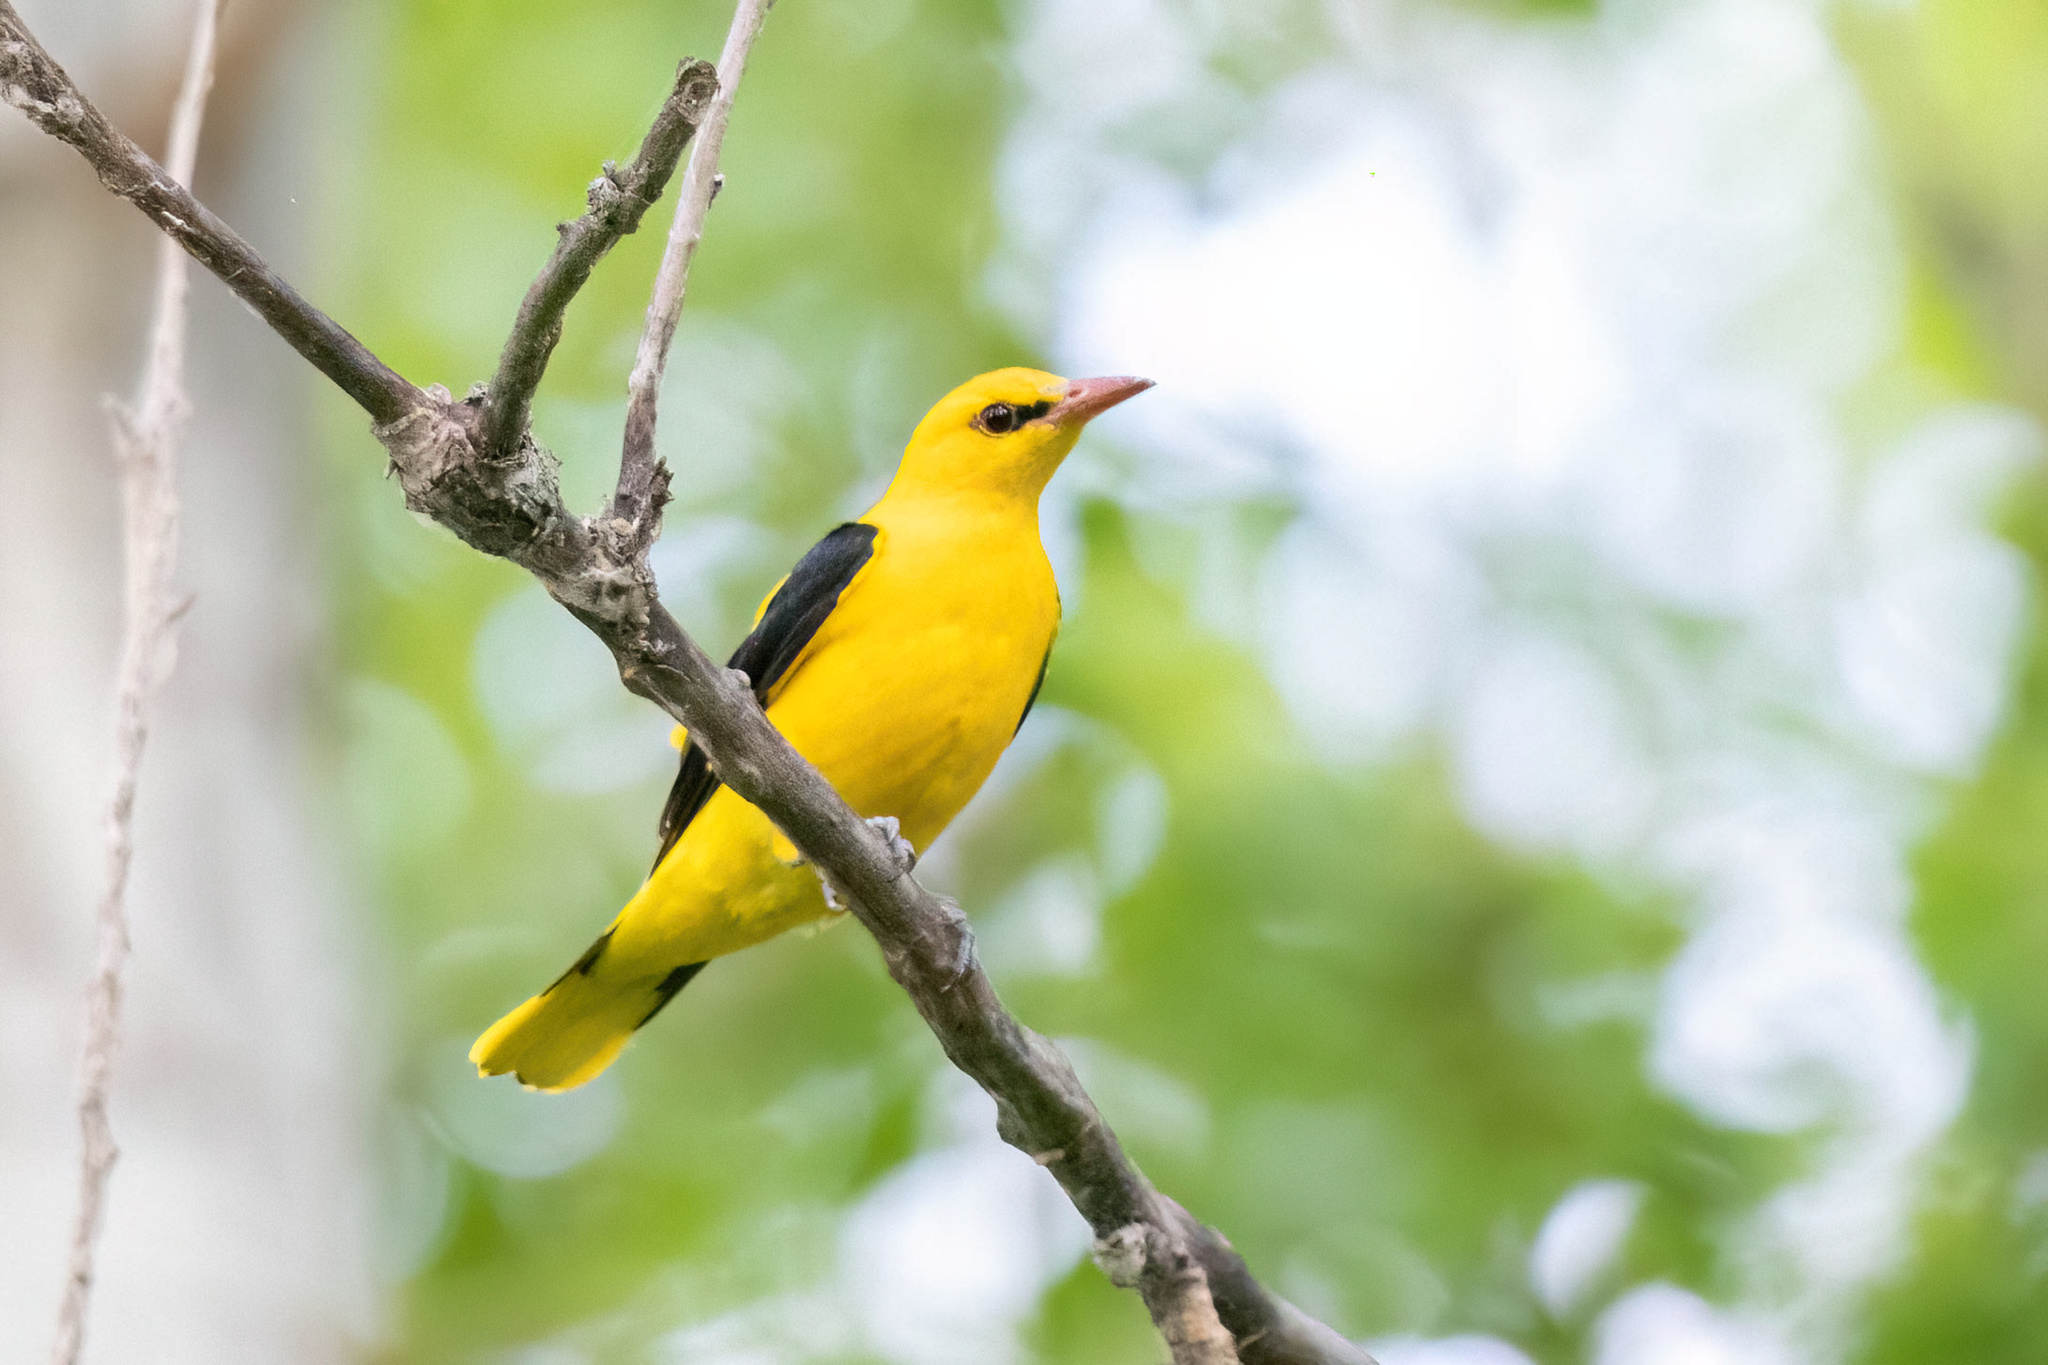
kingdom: Animalia
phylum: Chordata
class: Aves
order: Passeriformes
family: Oriolidae
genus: Oriolus
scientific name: Oriolus oriolus
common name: Eurasian golden oriole
